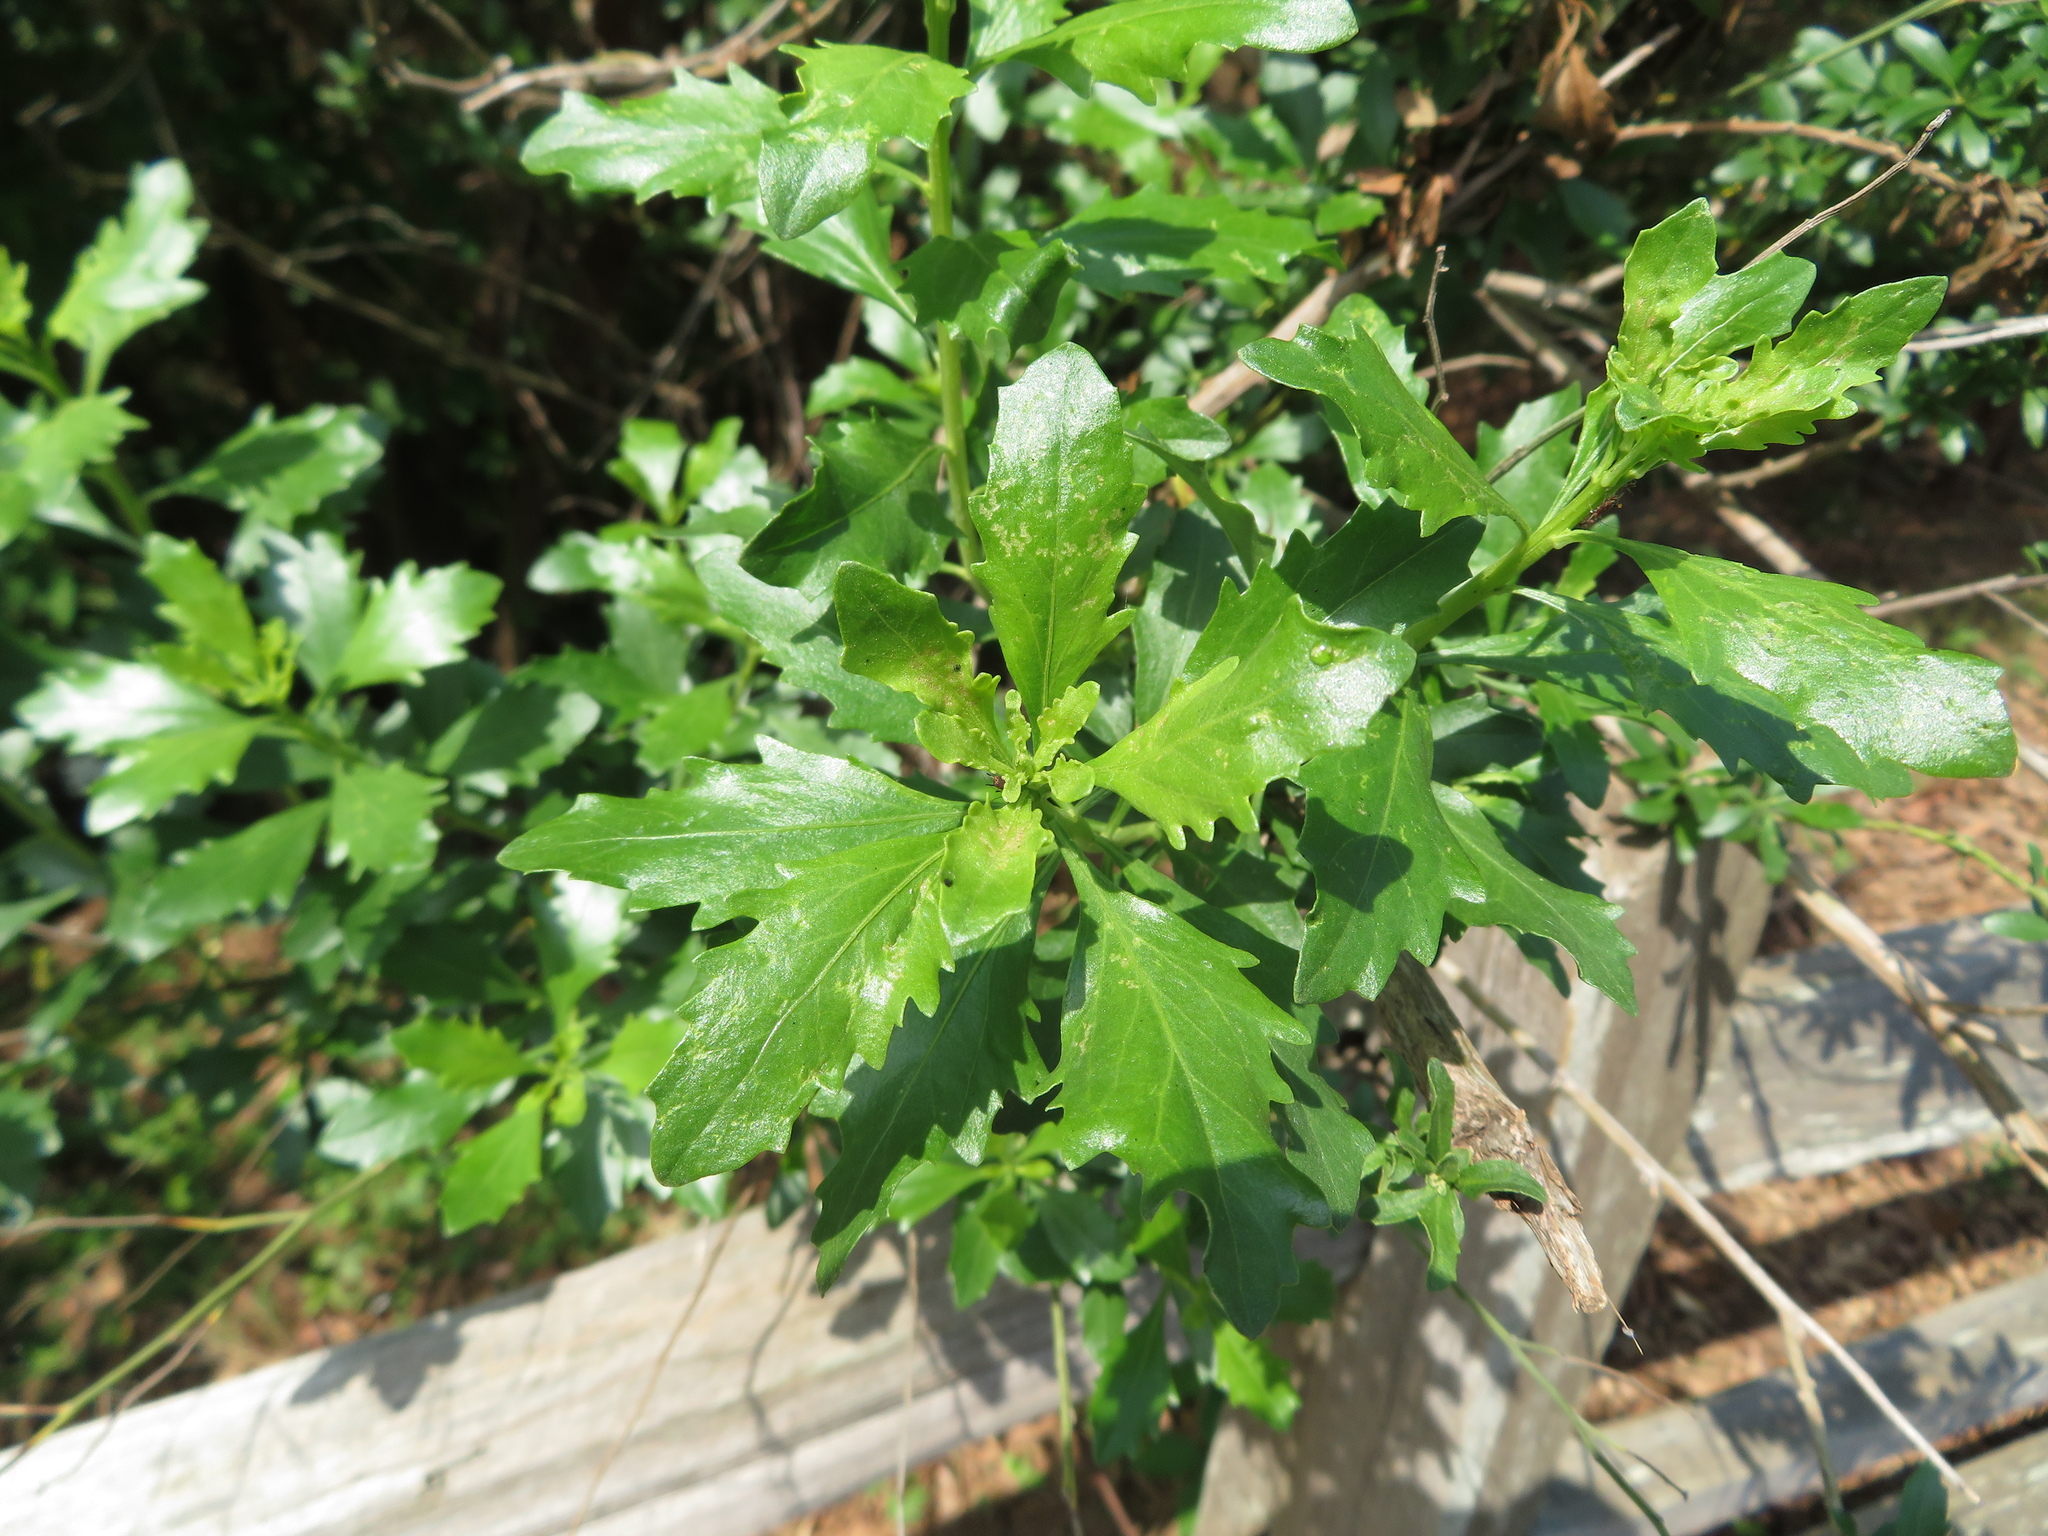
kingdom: Plantae
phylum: Tracheophyta
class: Magnoliopsida
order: Asterales
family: Asteraceae
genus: Baccharis
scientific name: Baccharis halimifolia
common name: Eastern baccharis
